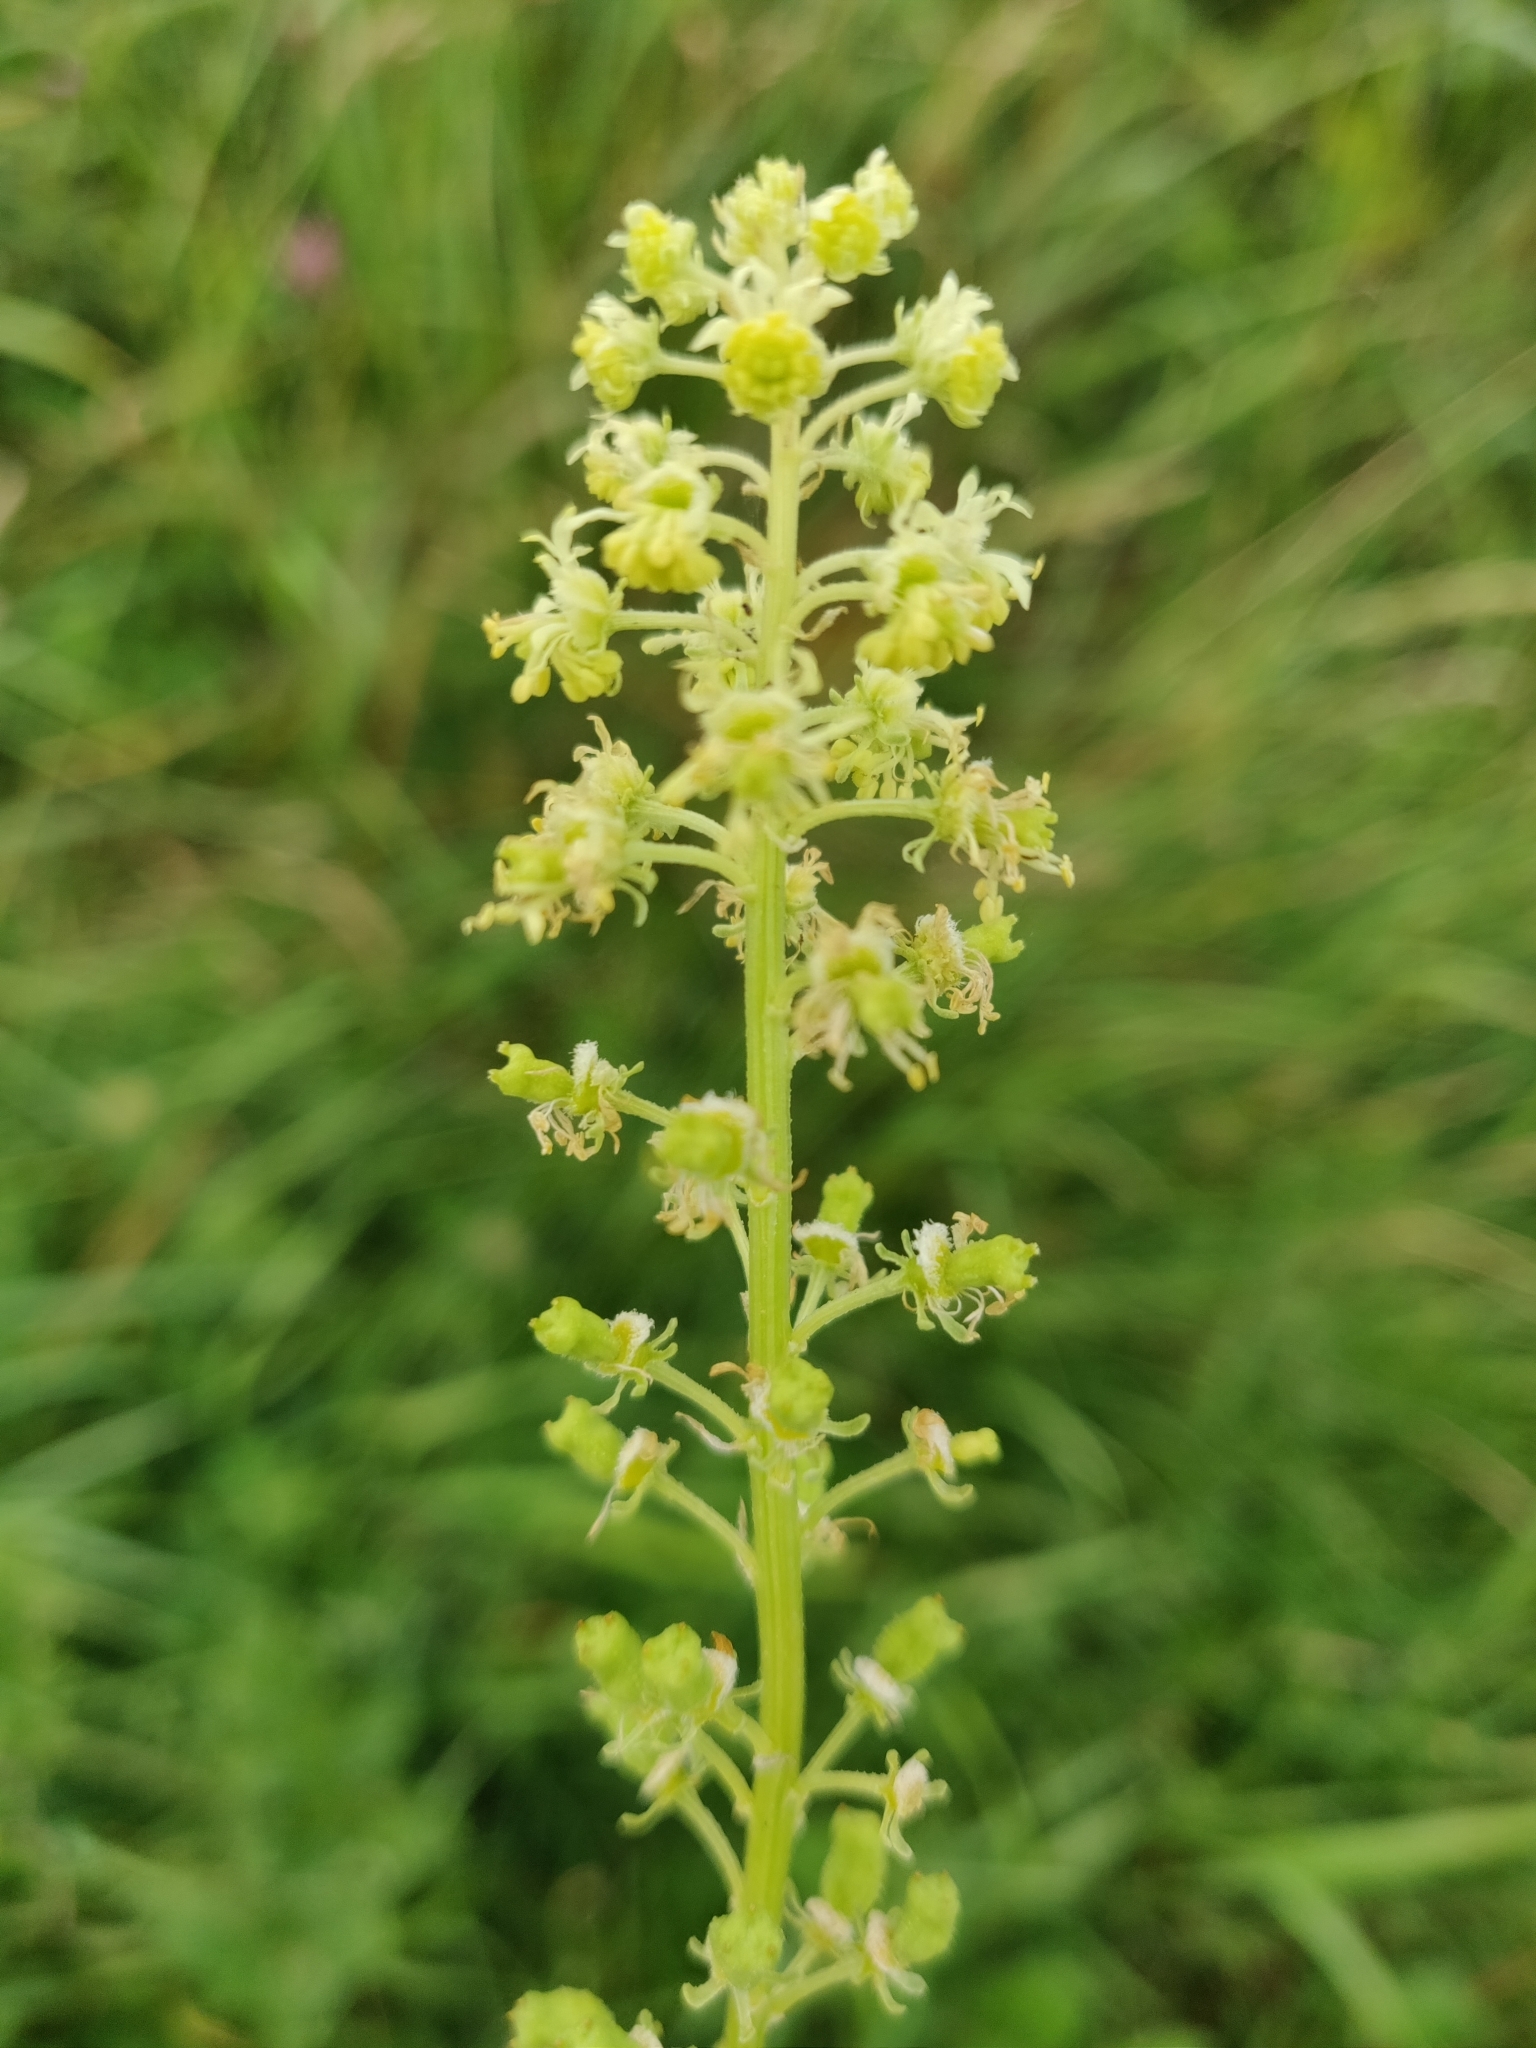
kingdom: Plantae
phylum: Tracheophyta
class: Magnoliopsida
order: Brassicales
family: Resedaceae
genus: Reseda
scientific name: Reseda lutea
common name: Wild mignonette
